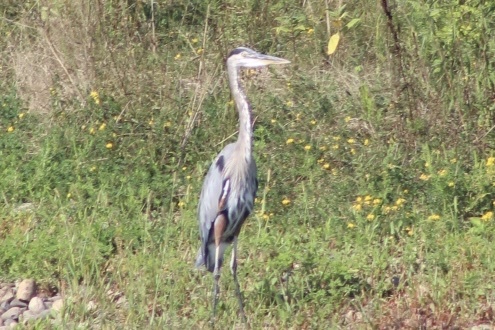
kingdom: Animalia
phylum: Chordata
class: Aves
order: Pelecaniformes
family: Ardeidae
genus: Ardea
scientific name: Ardea herodias
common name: Great blue heron
